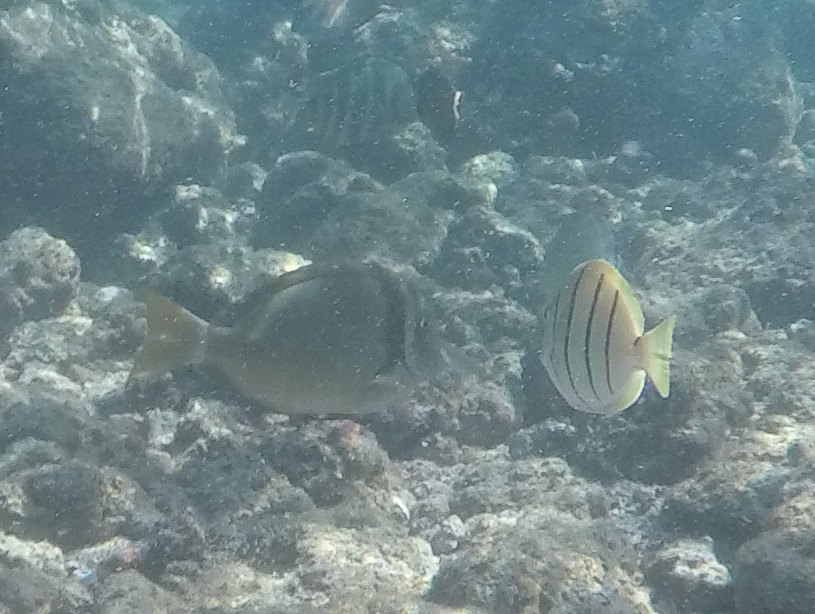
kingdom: Animalia
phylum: Chordata
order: Perciformes
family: Acanthuridae
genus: Acanthurus
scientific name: Acanthurus leucopareius
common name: Head-band surgeonfish
